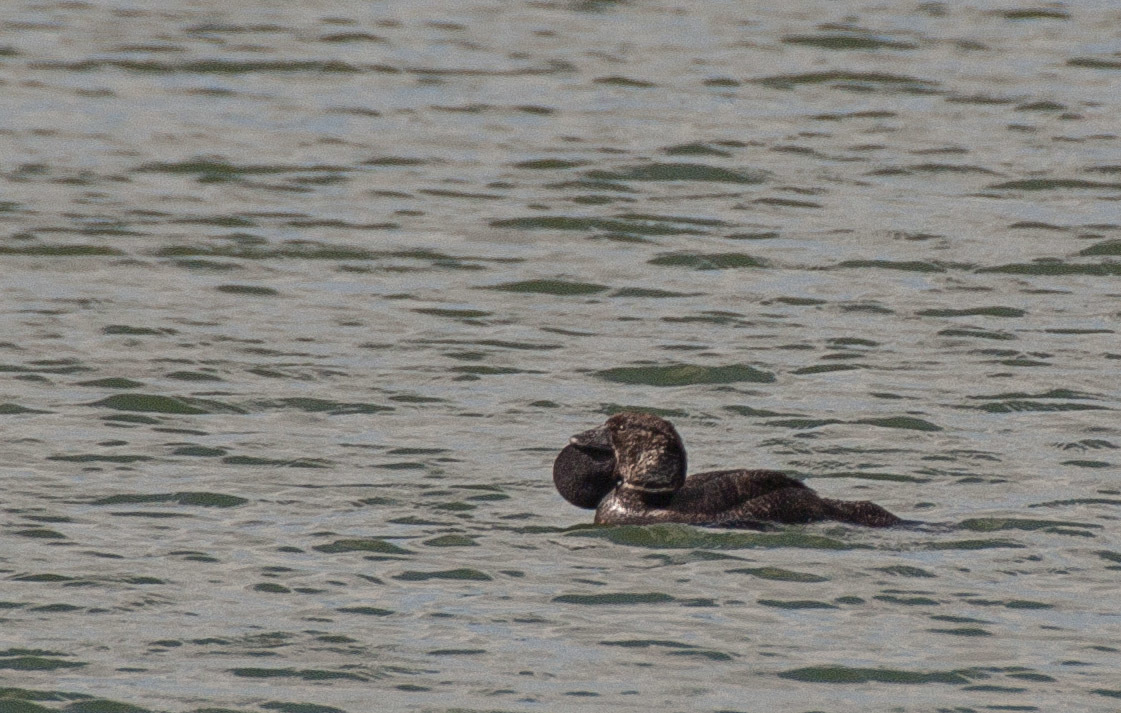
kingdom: Animalia
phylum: Chordata
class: Aves
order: Anseriformes
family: Anatidae
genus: Biziura
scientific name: Biziura lobata
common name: Musk duck
